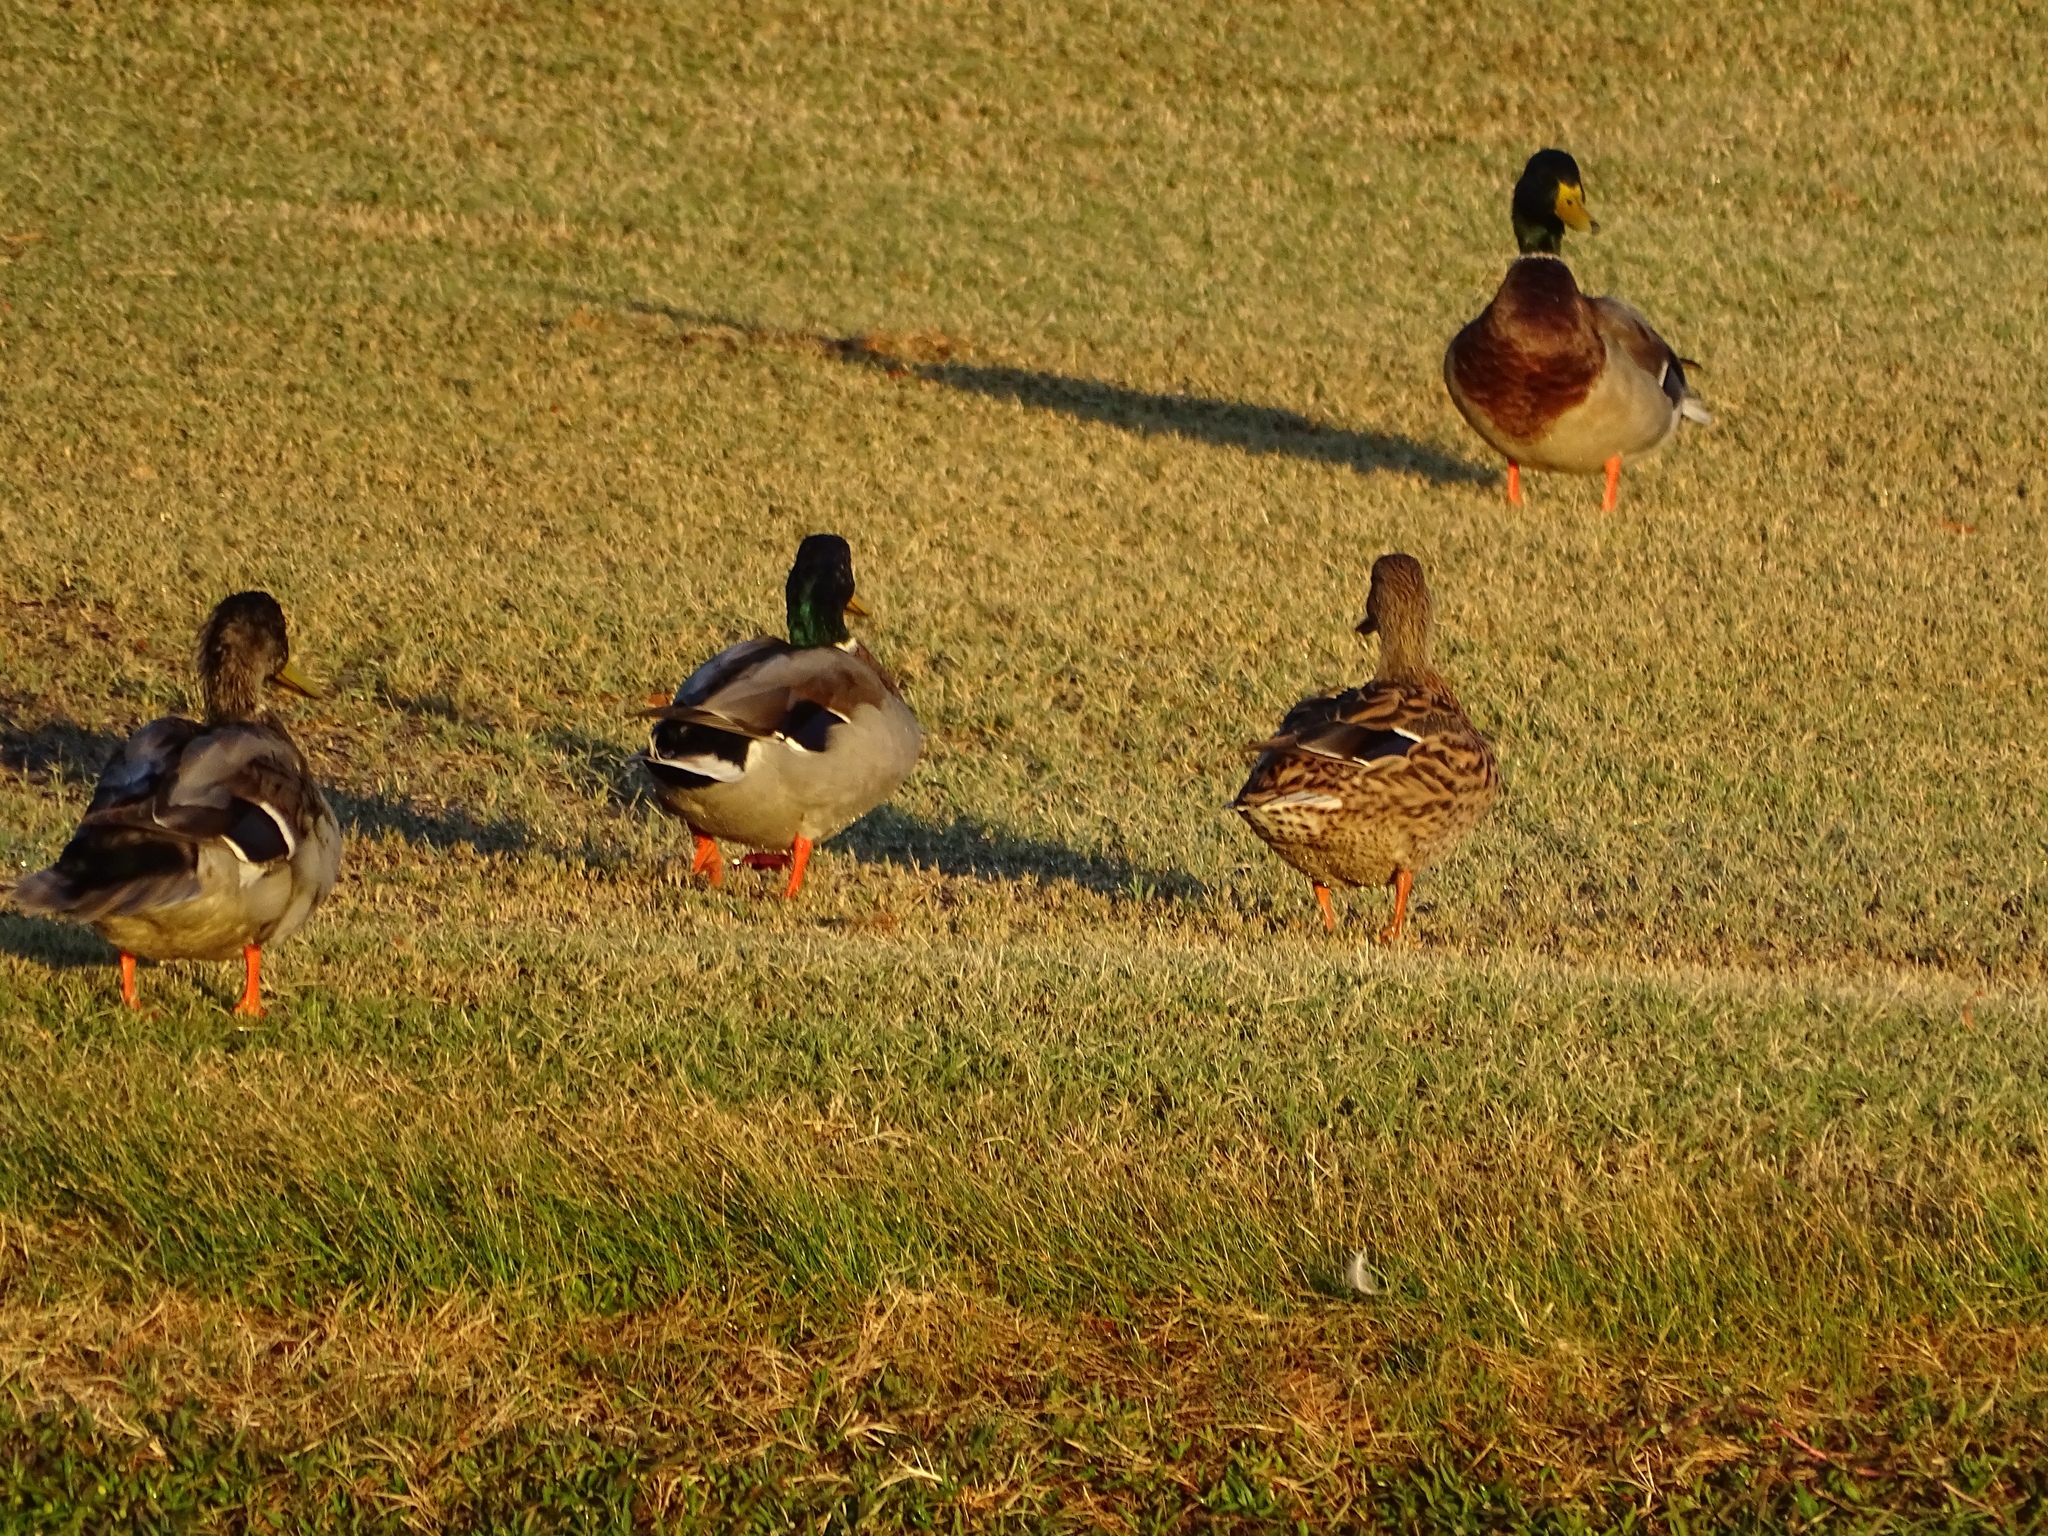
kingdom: Animalia
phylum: Chordata
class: Aves
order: Anseriformes
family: Anatidae
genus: Anas
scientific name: Anas platyrhynchos
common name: Mallard
